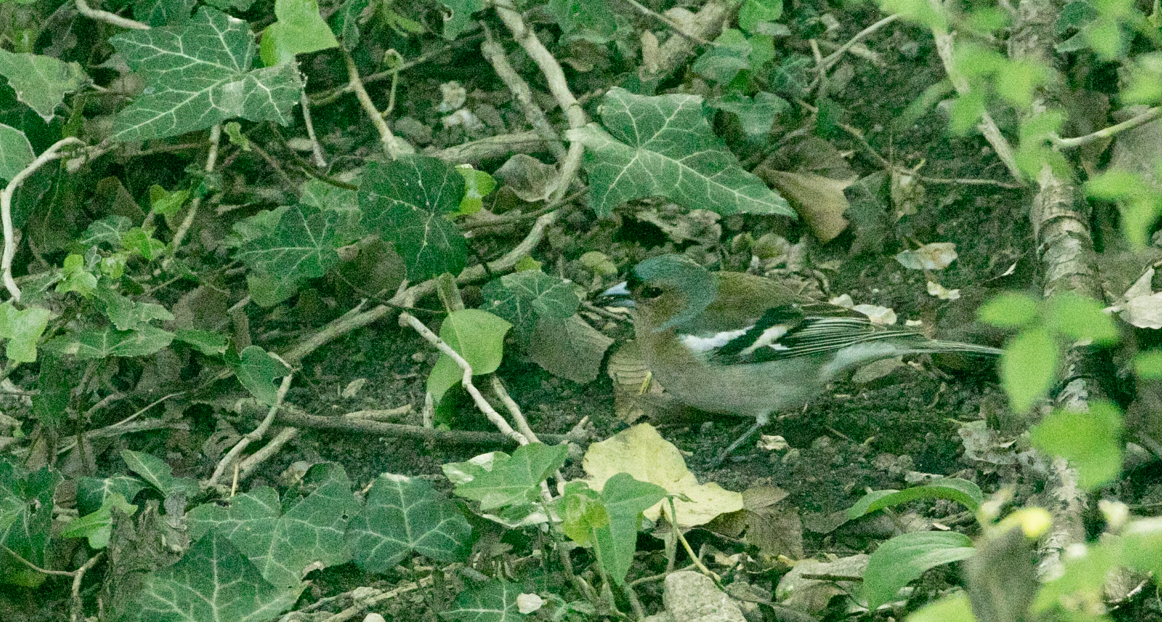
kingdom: Animalia
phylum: Chordata
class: Aves
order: Passeriformes
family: Fringillidae
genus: Fringilla
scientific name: Fringilla coelebs
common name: Common chaffinch
